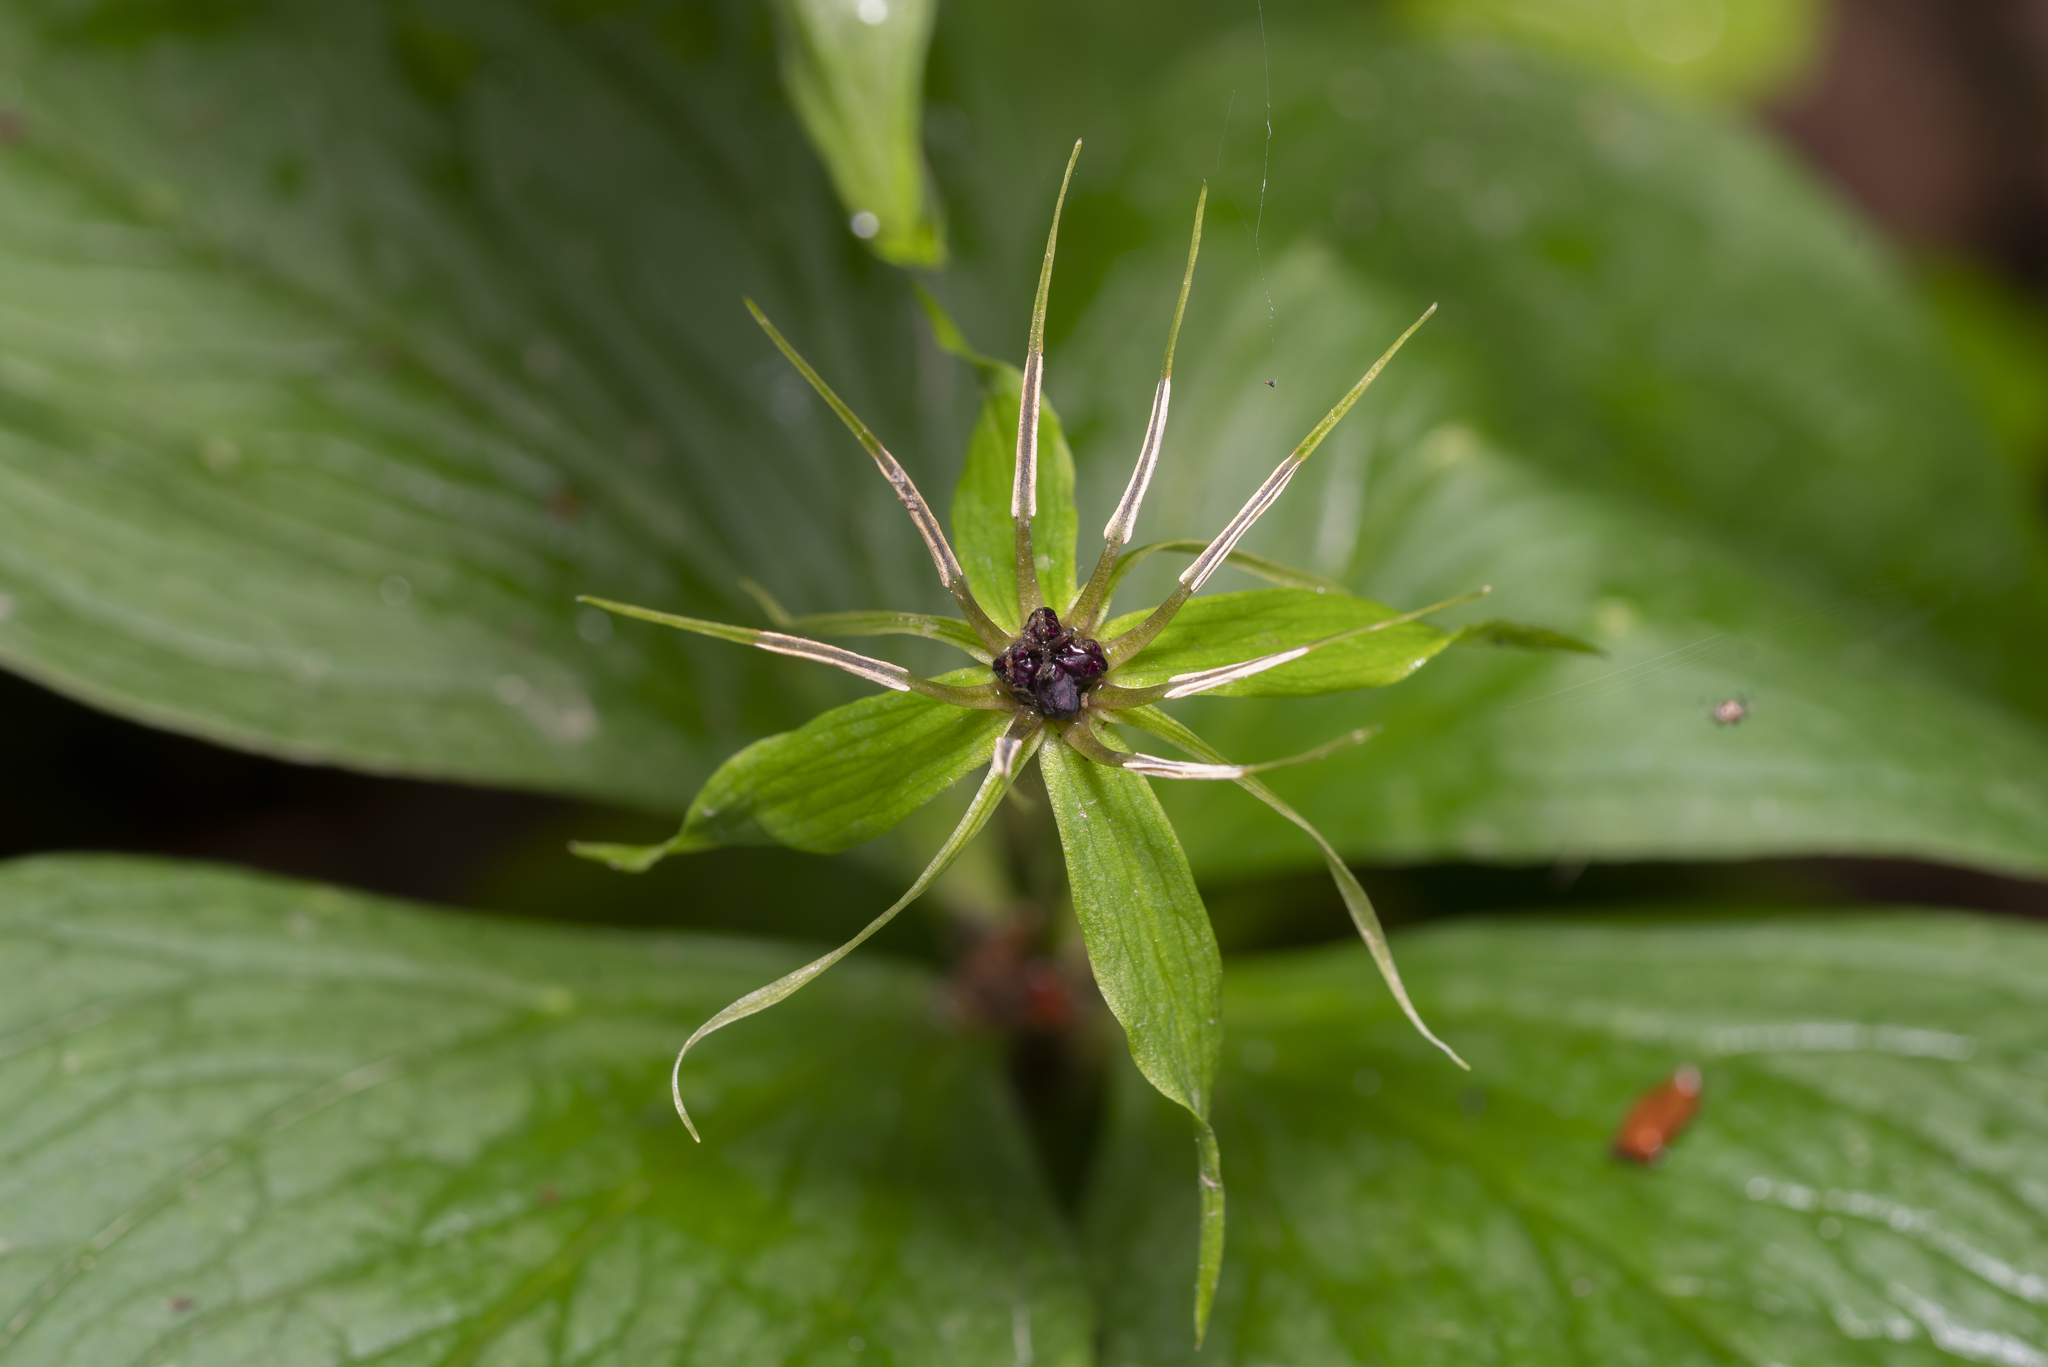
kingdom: Plantae
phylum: Tracheophyta
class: Liliopsida
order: Liliales
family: Melanthiaceae
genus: Paris
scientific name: Paris quadrifolia
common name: Herb-paris
